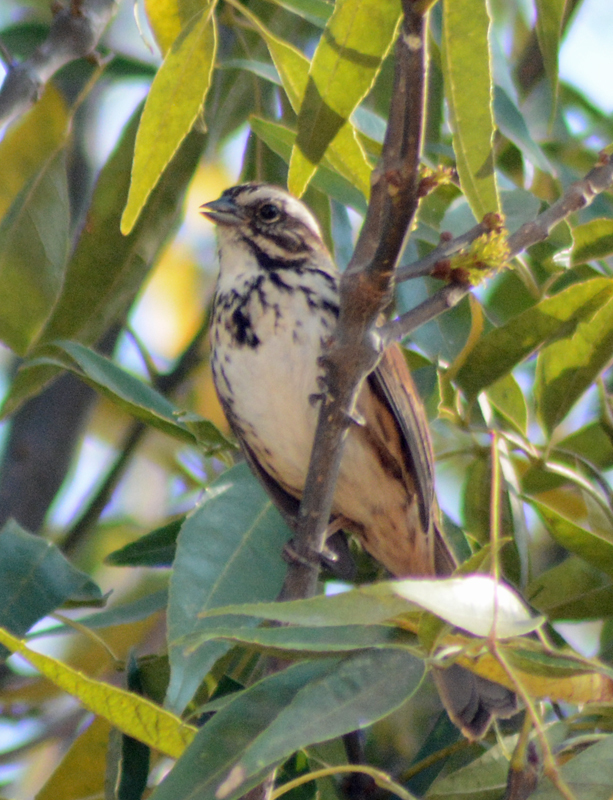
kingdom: Animalia
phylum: Chordata
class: Aves
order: Passeriformes
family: Passerellidae
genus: Melospiza
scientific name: Melospiza melodia
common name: Song sparrow
